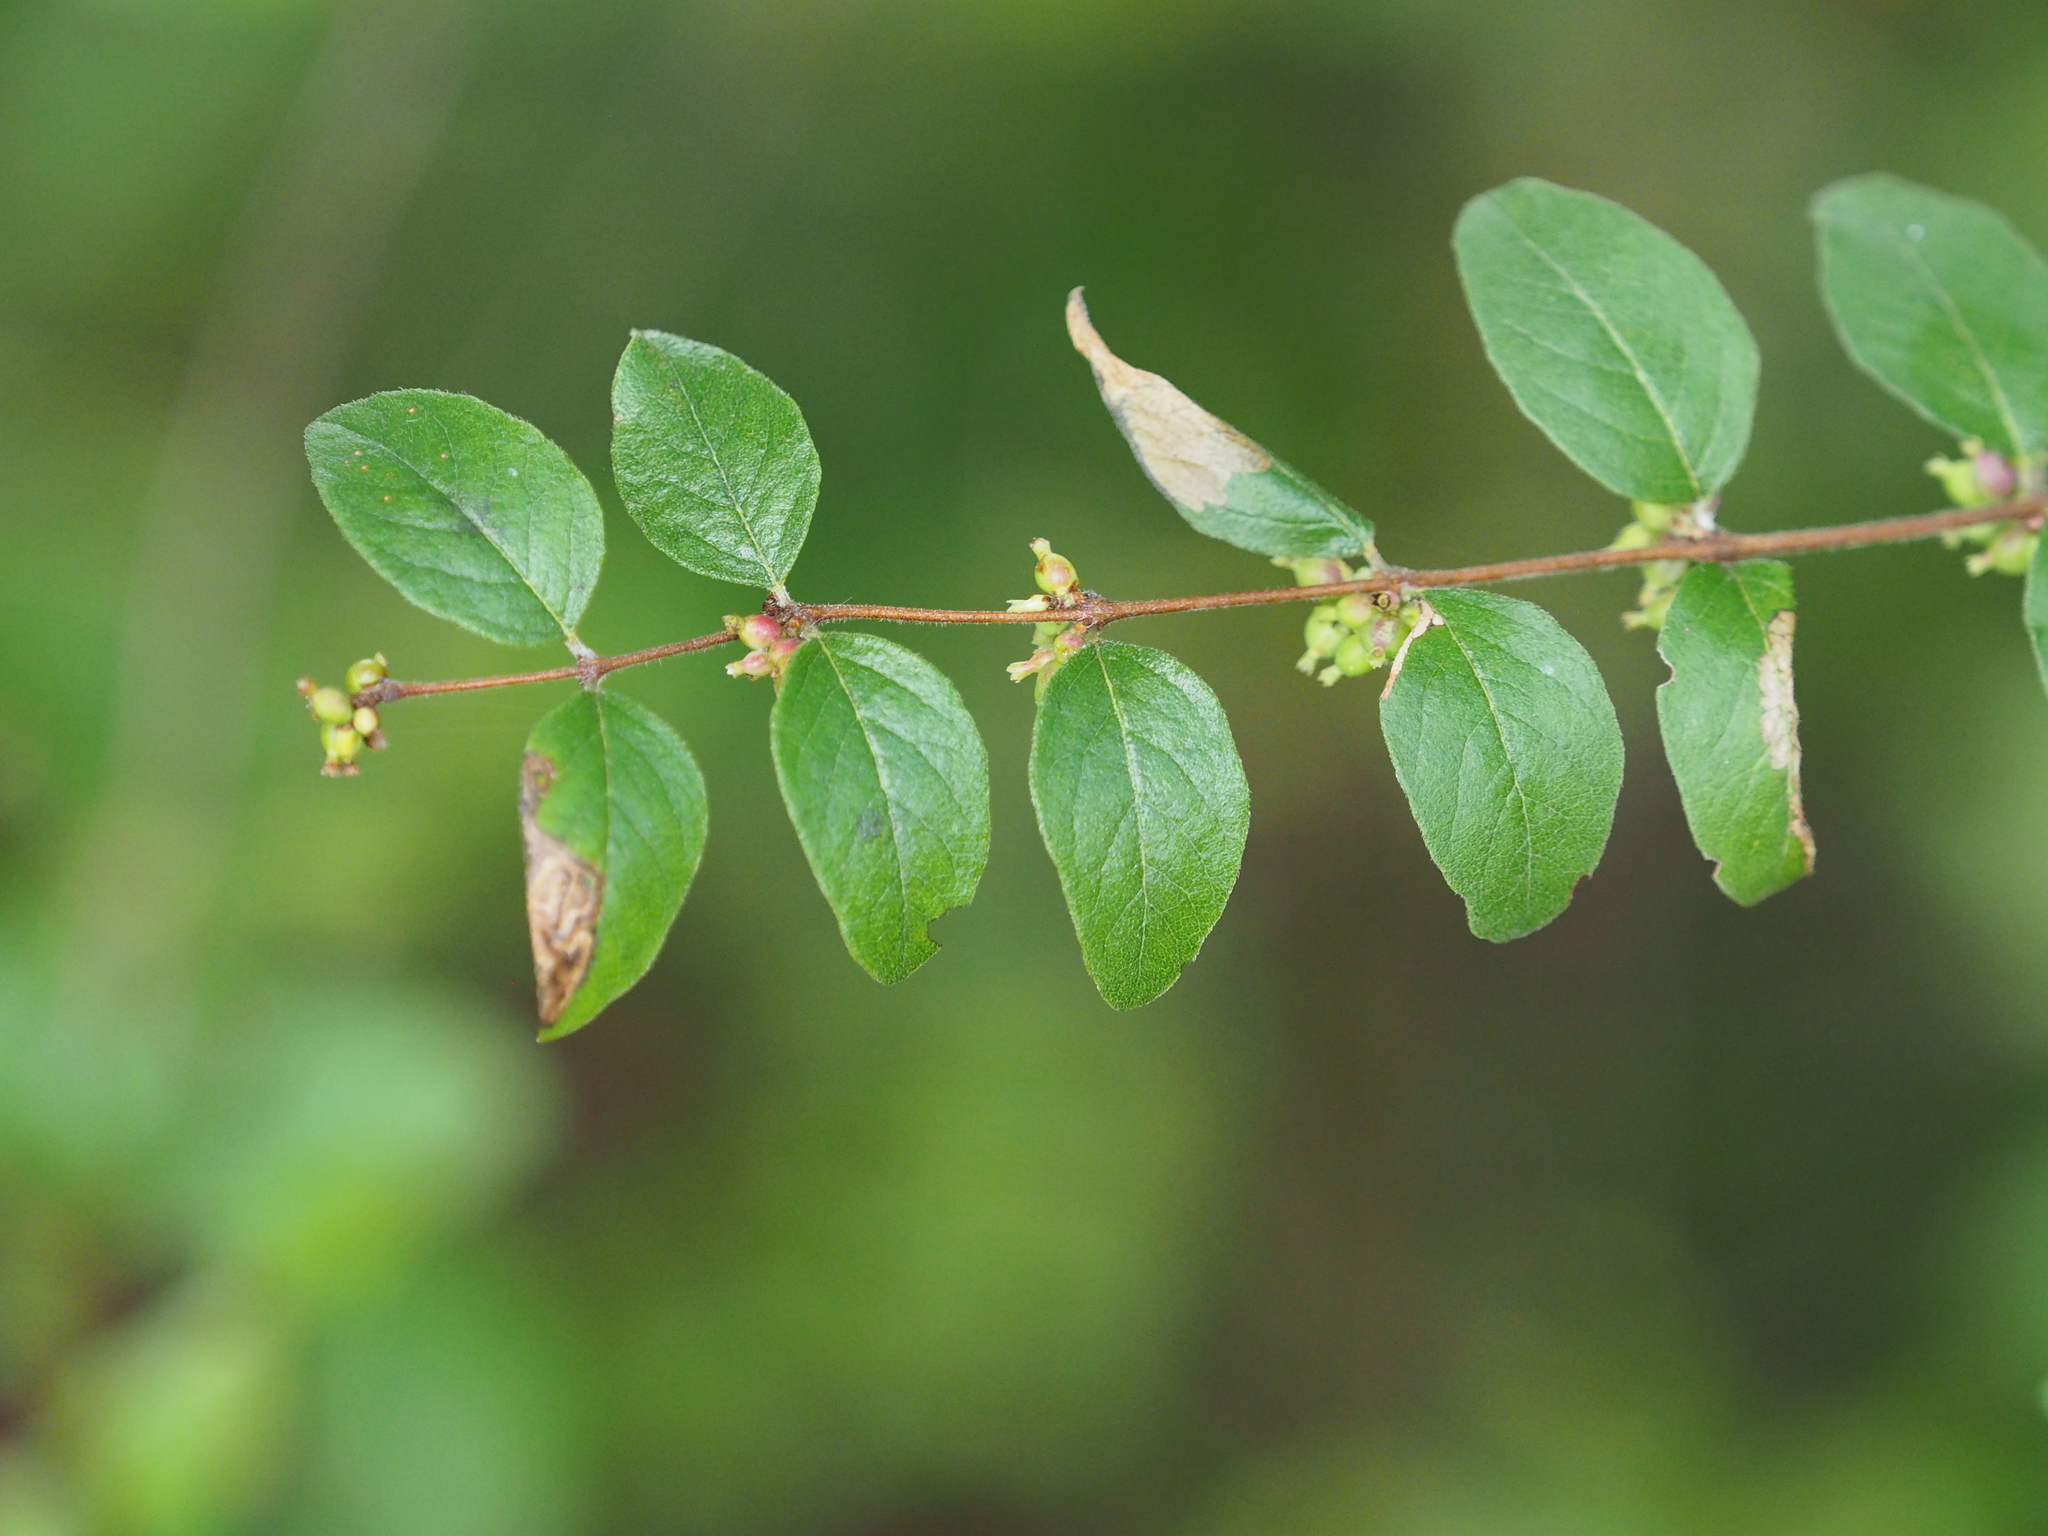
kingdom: Plantae
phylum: Tracheophyta
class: Magnoliopsida
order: Dipsacales
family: Caprifoliaceae
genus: Symphoricarpos
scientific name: Symphoricarpos orbiculatus
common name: Coralberry
